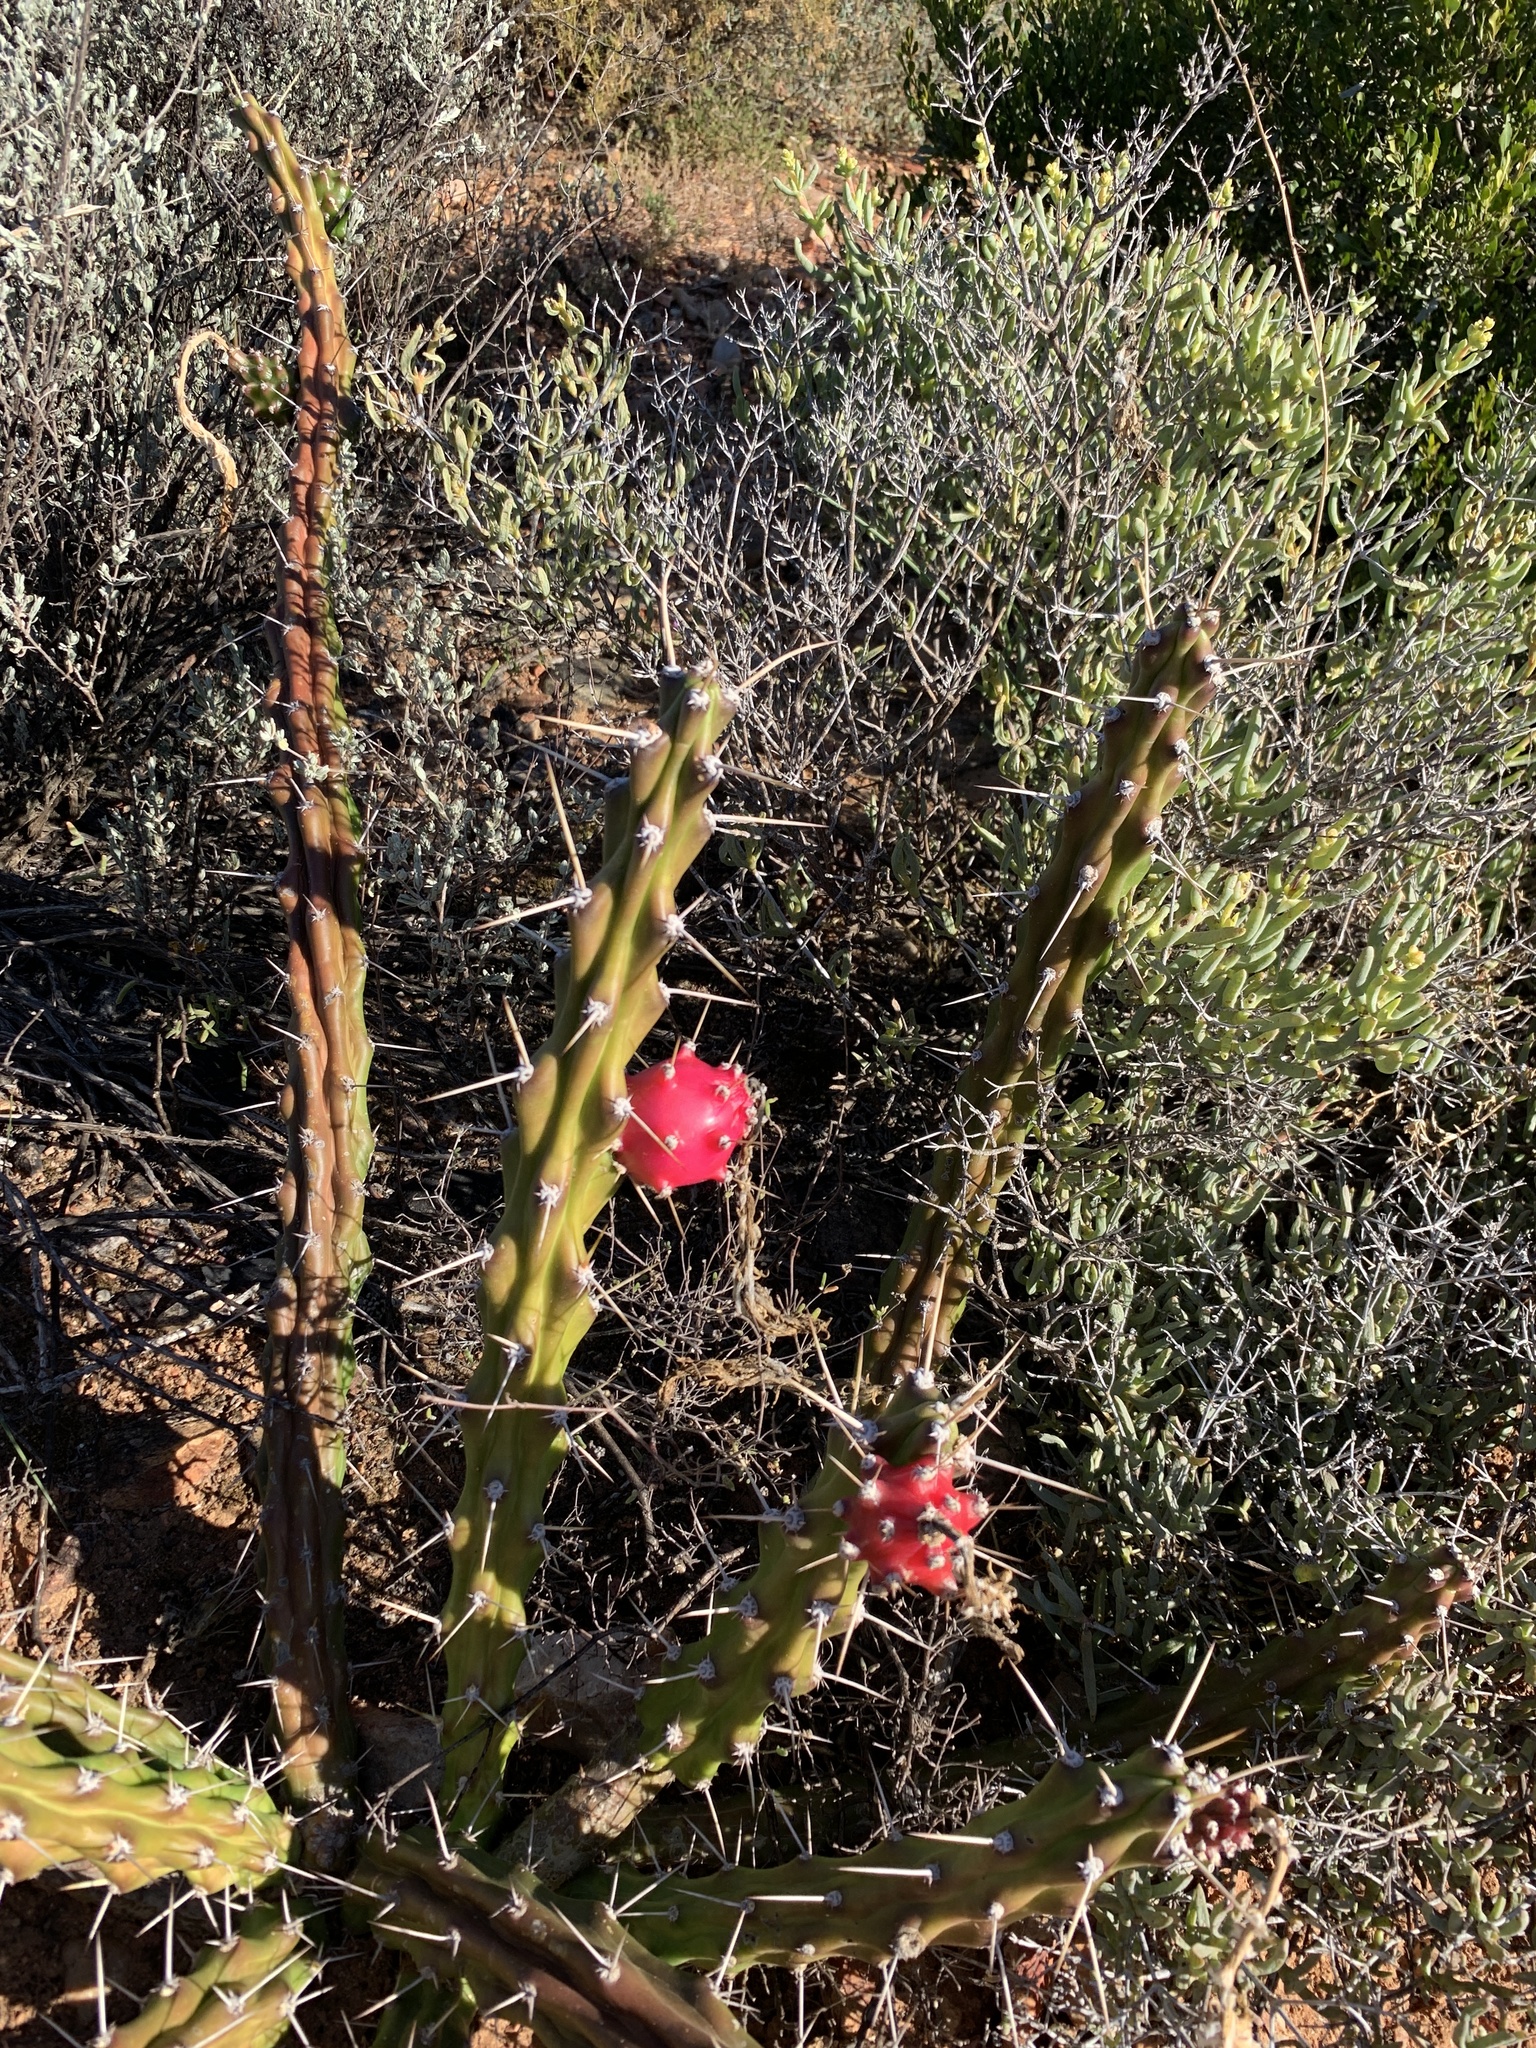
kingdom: Plantae
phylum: Tracheophyta
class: Magnoliopsida
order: Caryophyllales
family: Cactaceae
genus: Harrisia
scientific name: Harrisia martinii
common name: Moon cactus
